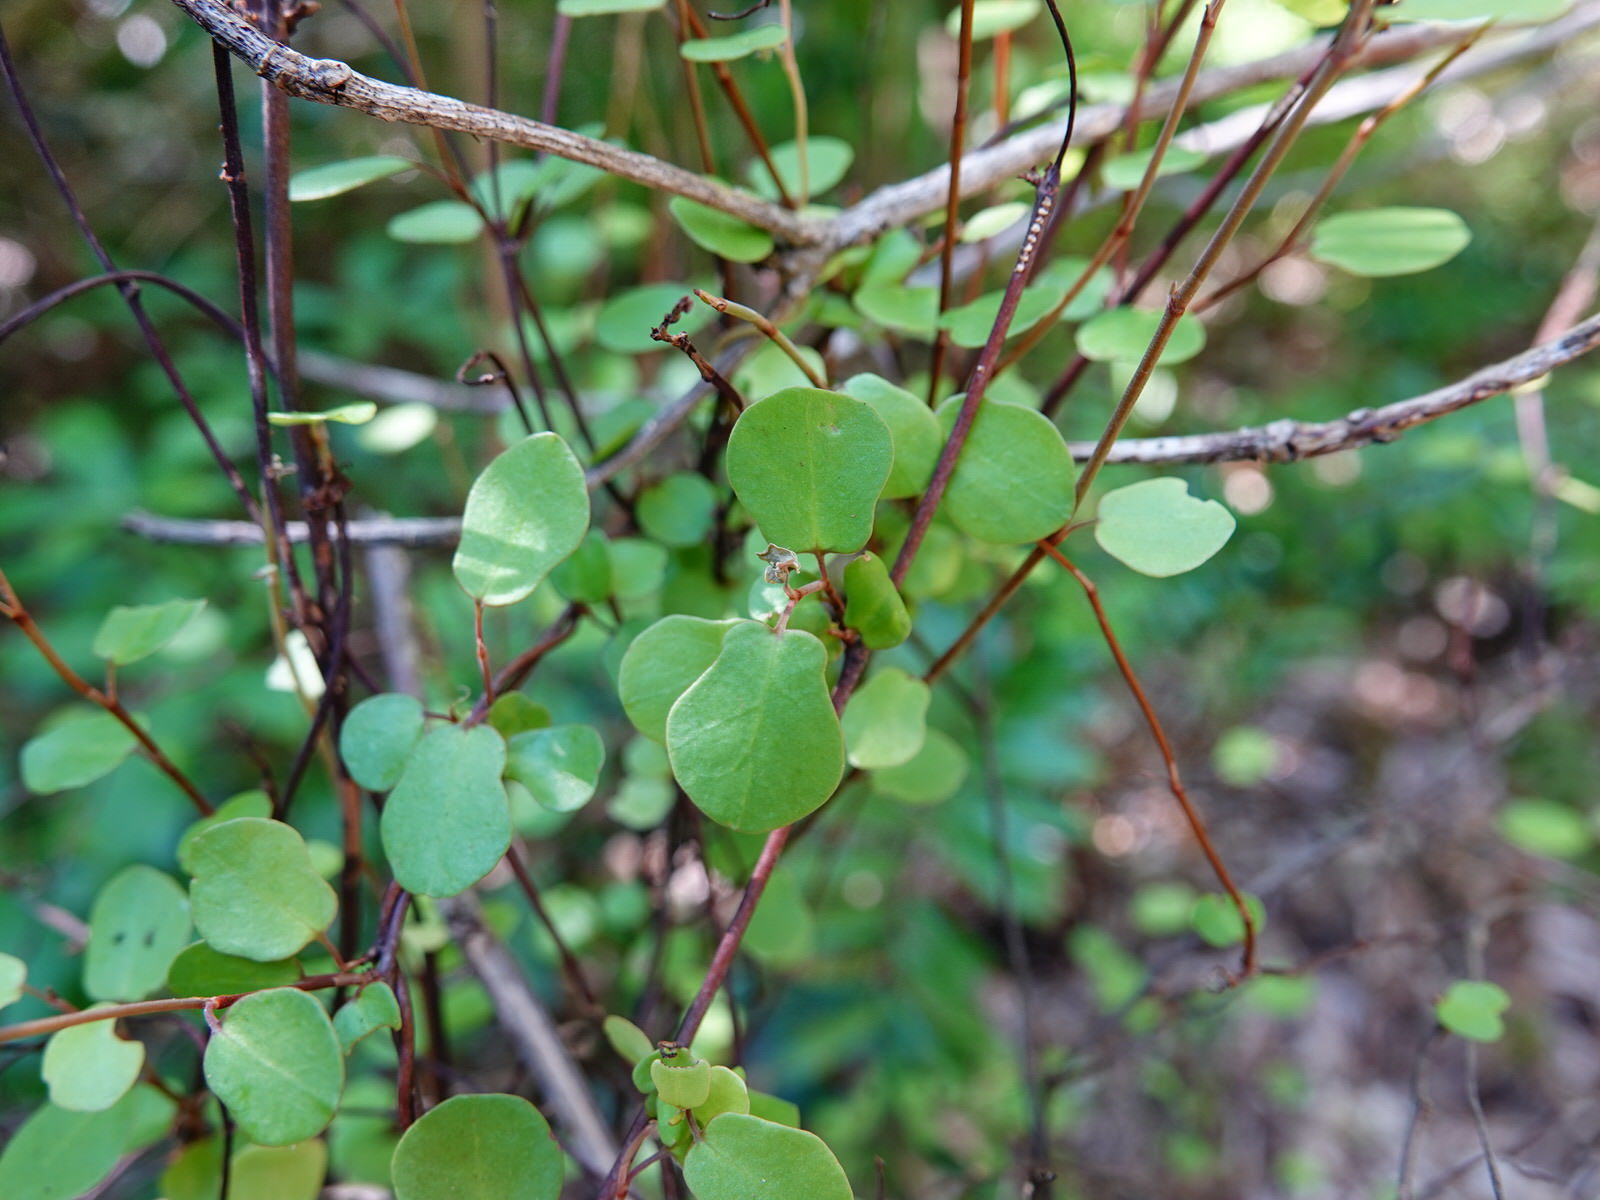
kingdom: Plantae
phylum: Tracheophyta
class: Magnoliopsida
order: Caryophyllales
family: Polygonaceae
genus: Muehlenbeckia
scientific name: Muehlenbeckia complexa
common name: Wireplant
